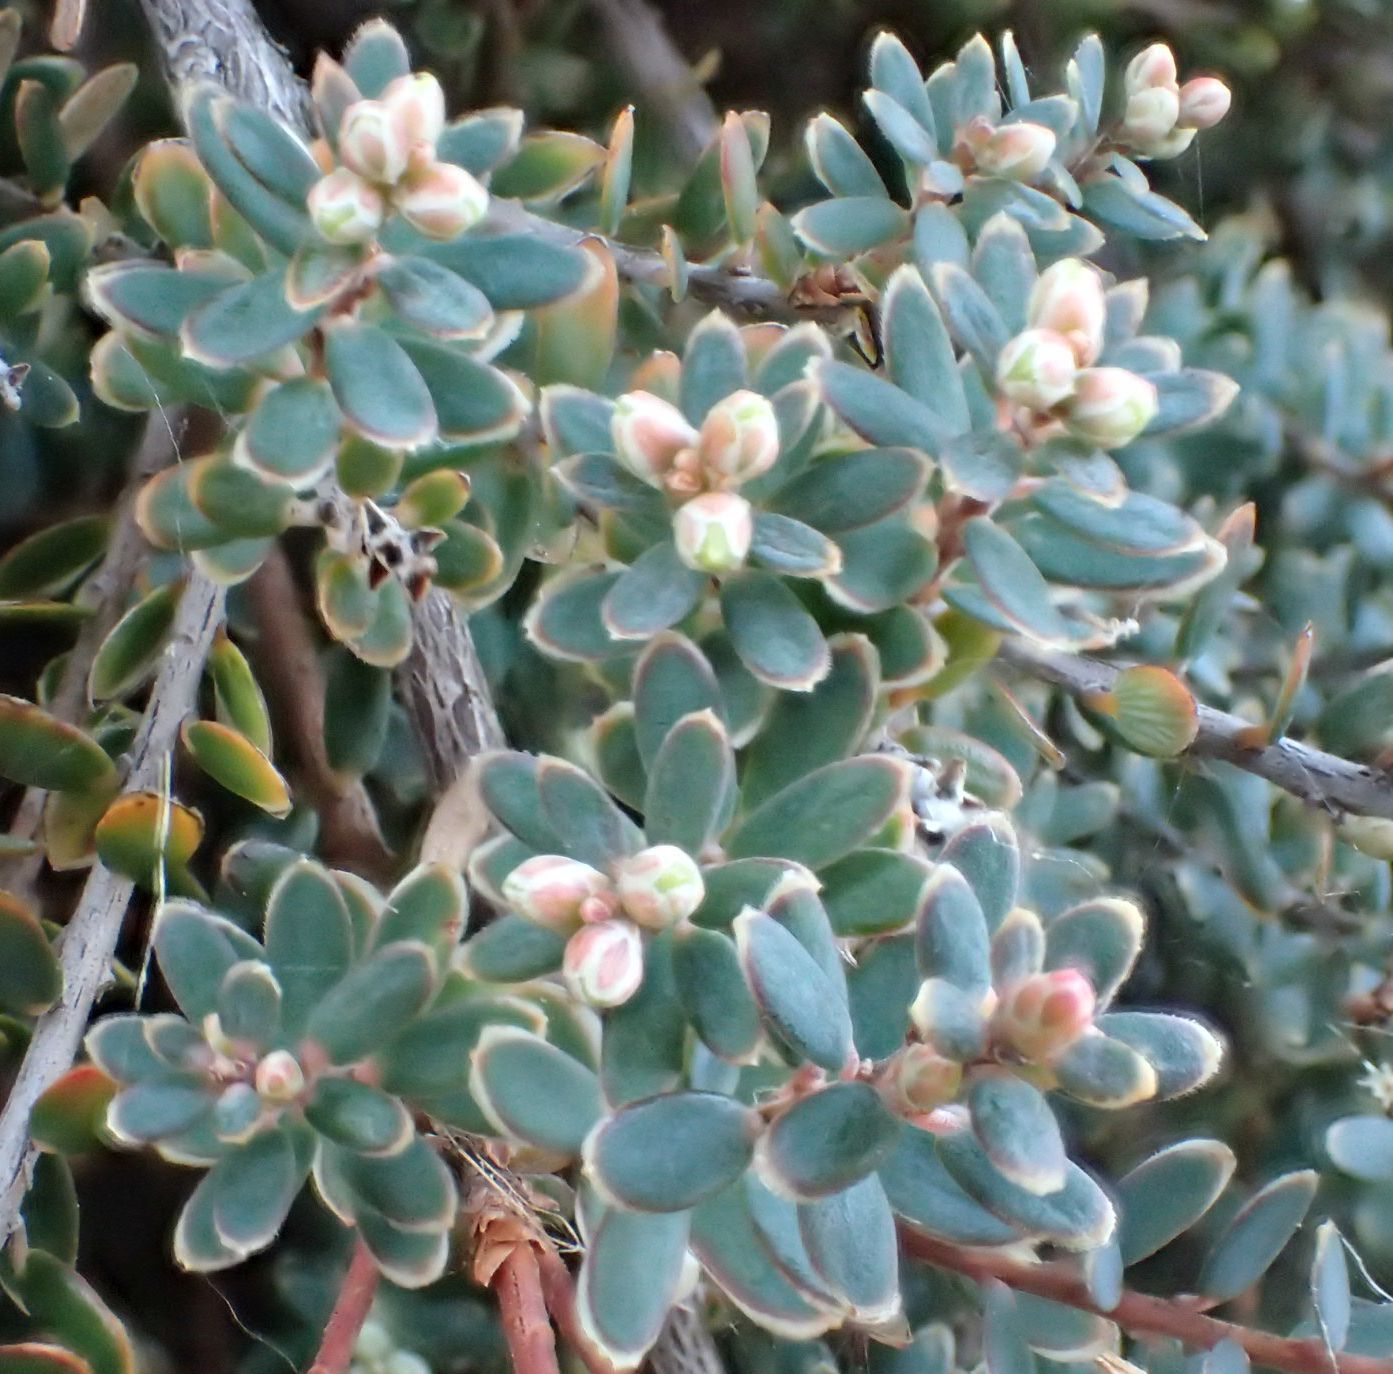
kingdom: Plantae
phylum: Tracheophyta
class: Magnoliopsida
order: Ericales
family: Ericaceae
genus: Acrothamnus
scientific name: Acrothamnus colensoi
